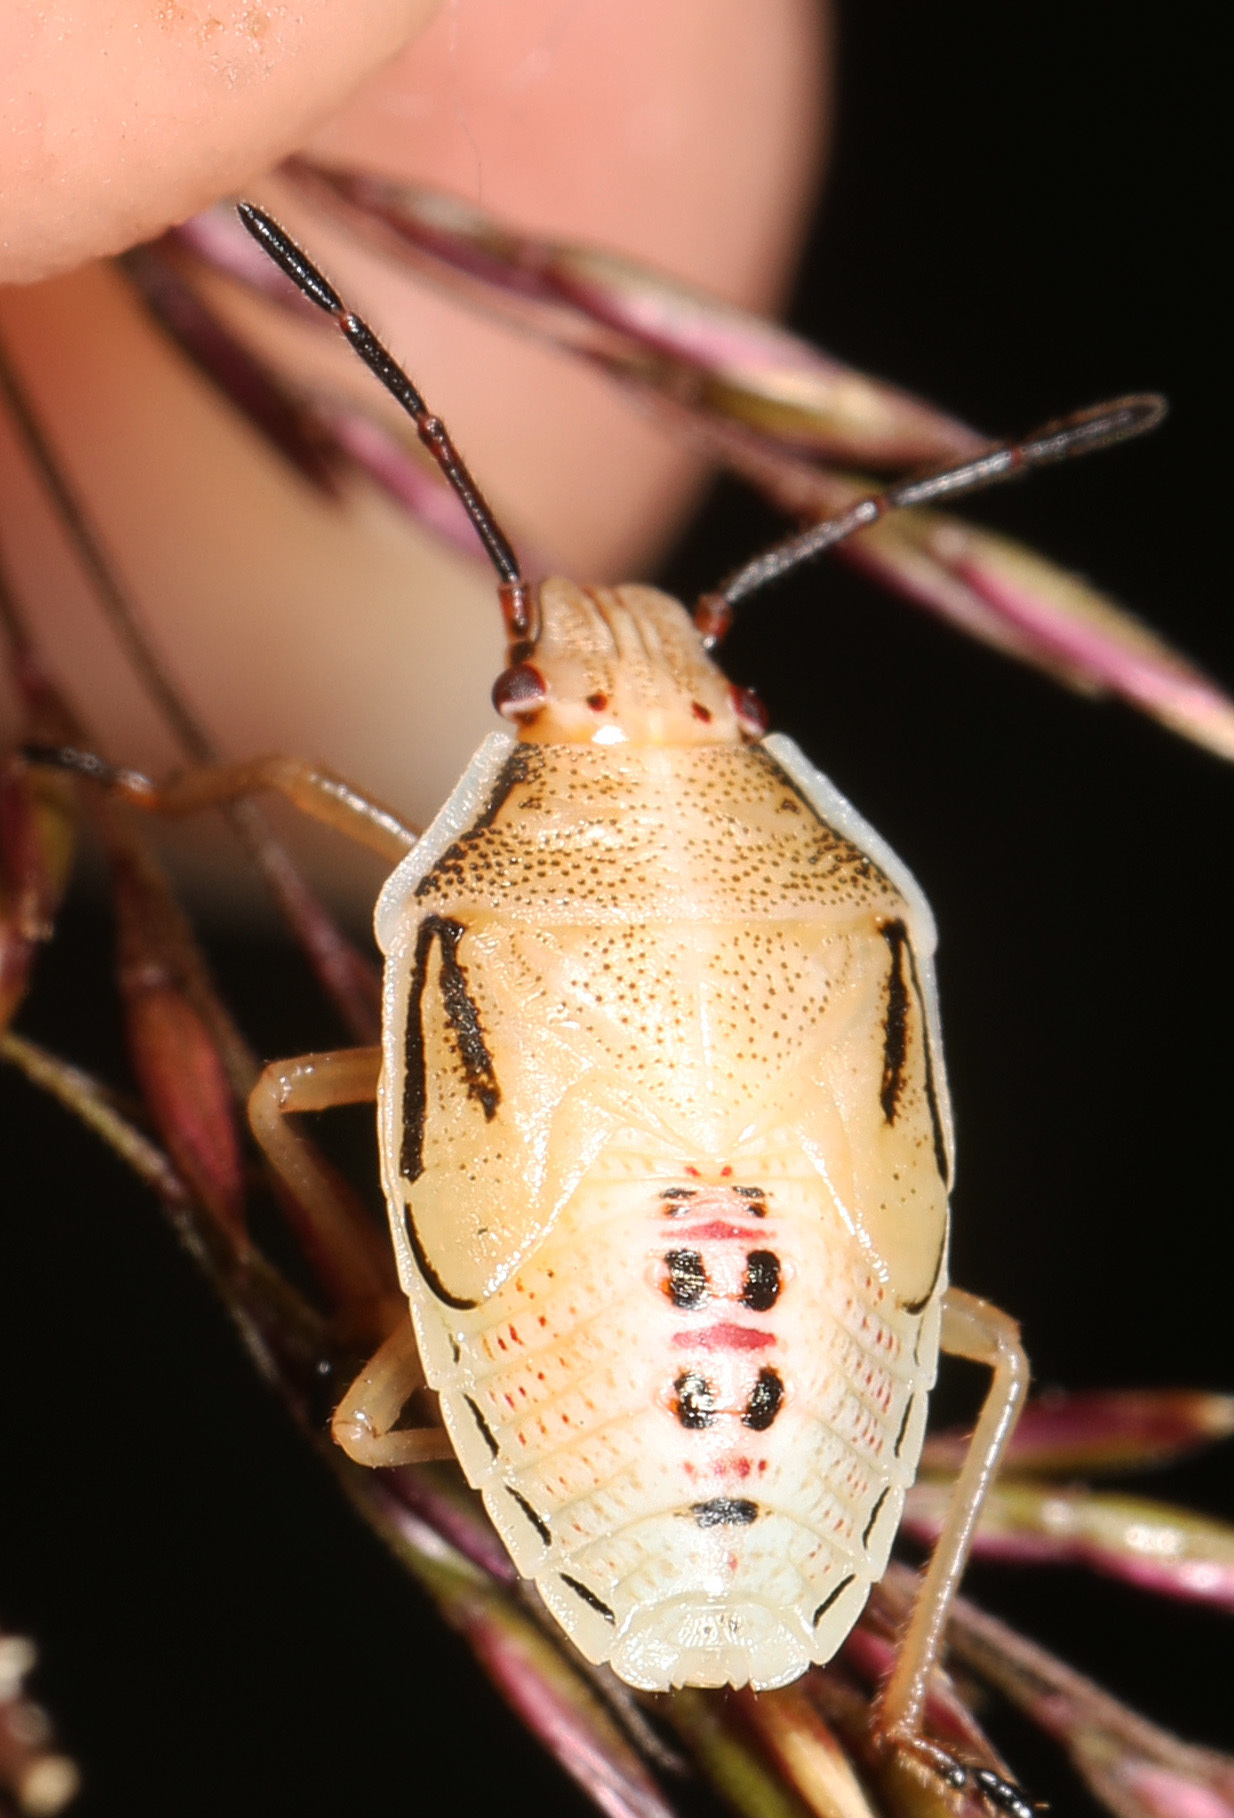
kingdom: Animalia
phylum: Arthropoda
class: Insecta
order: Hemiptera
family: Pentatomidae
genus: Oebalus
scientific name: Oebalus pugnax
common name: Rice stink bug
